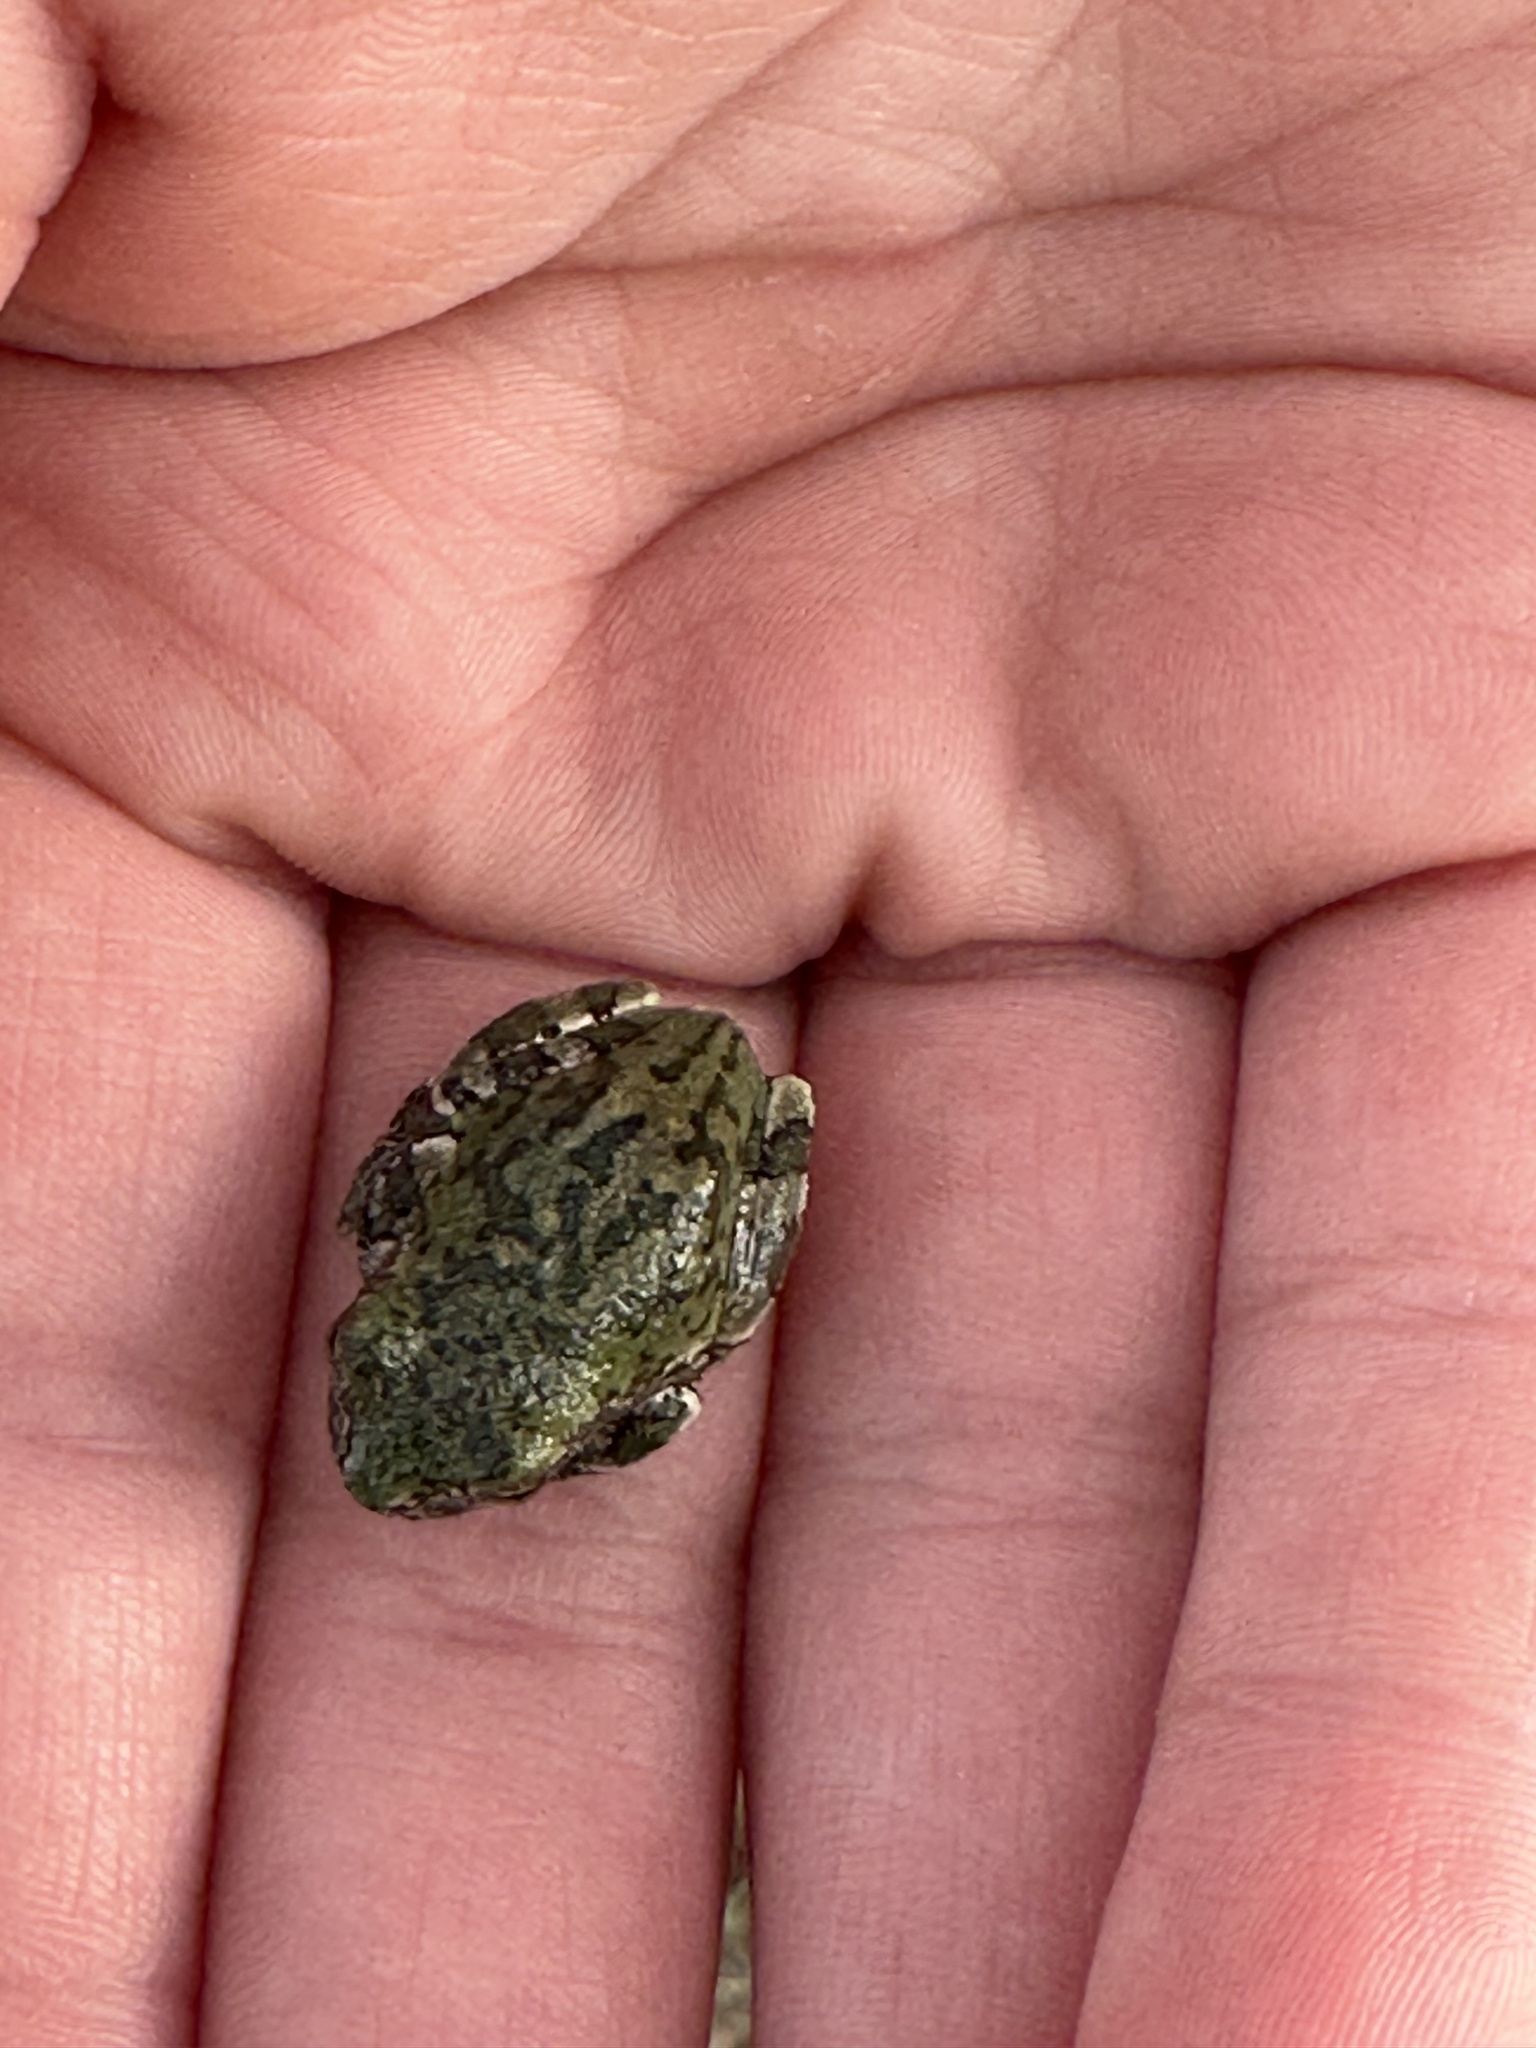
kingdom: Animalia
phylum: Chordata
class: Amphibia
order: Anura
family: Hylidae
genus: Hyla
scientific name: Hyla
